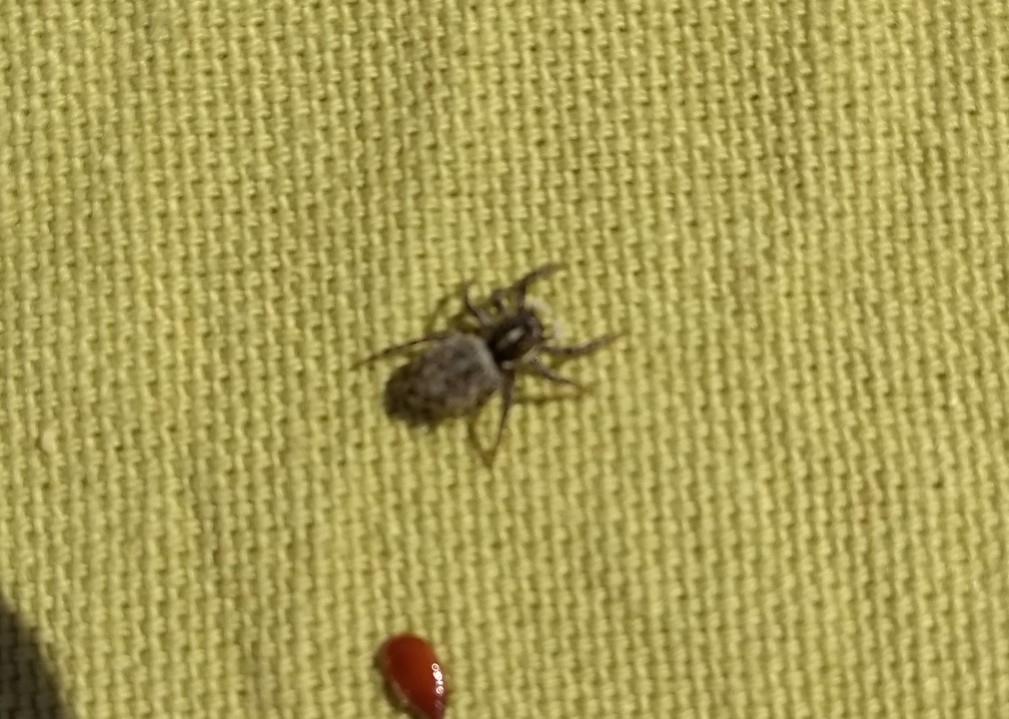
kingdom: Animalia
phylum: Arthropoda
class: Arachnida
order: Araneae
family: Salticidae
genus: Menemerus
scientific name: Menemerus semilimbatus
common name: Jumping spider
